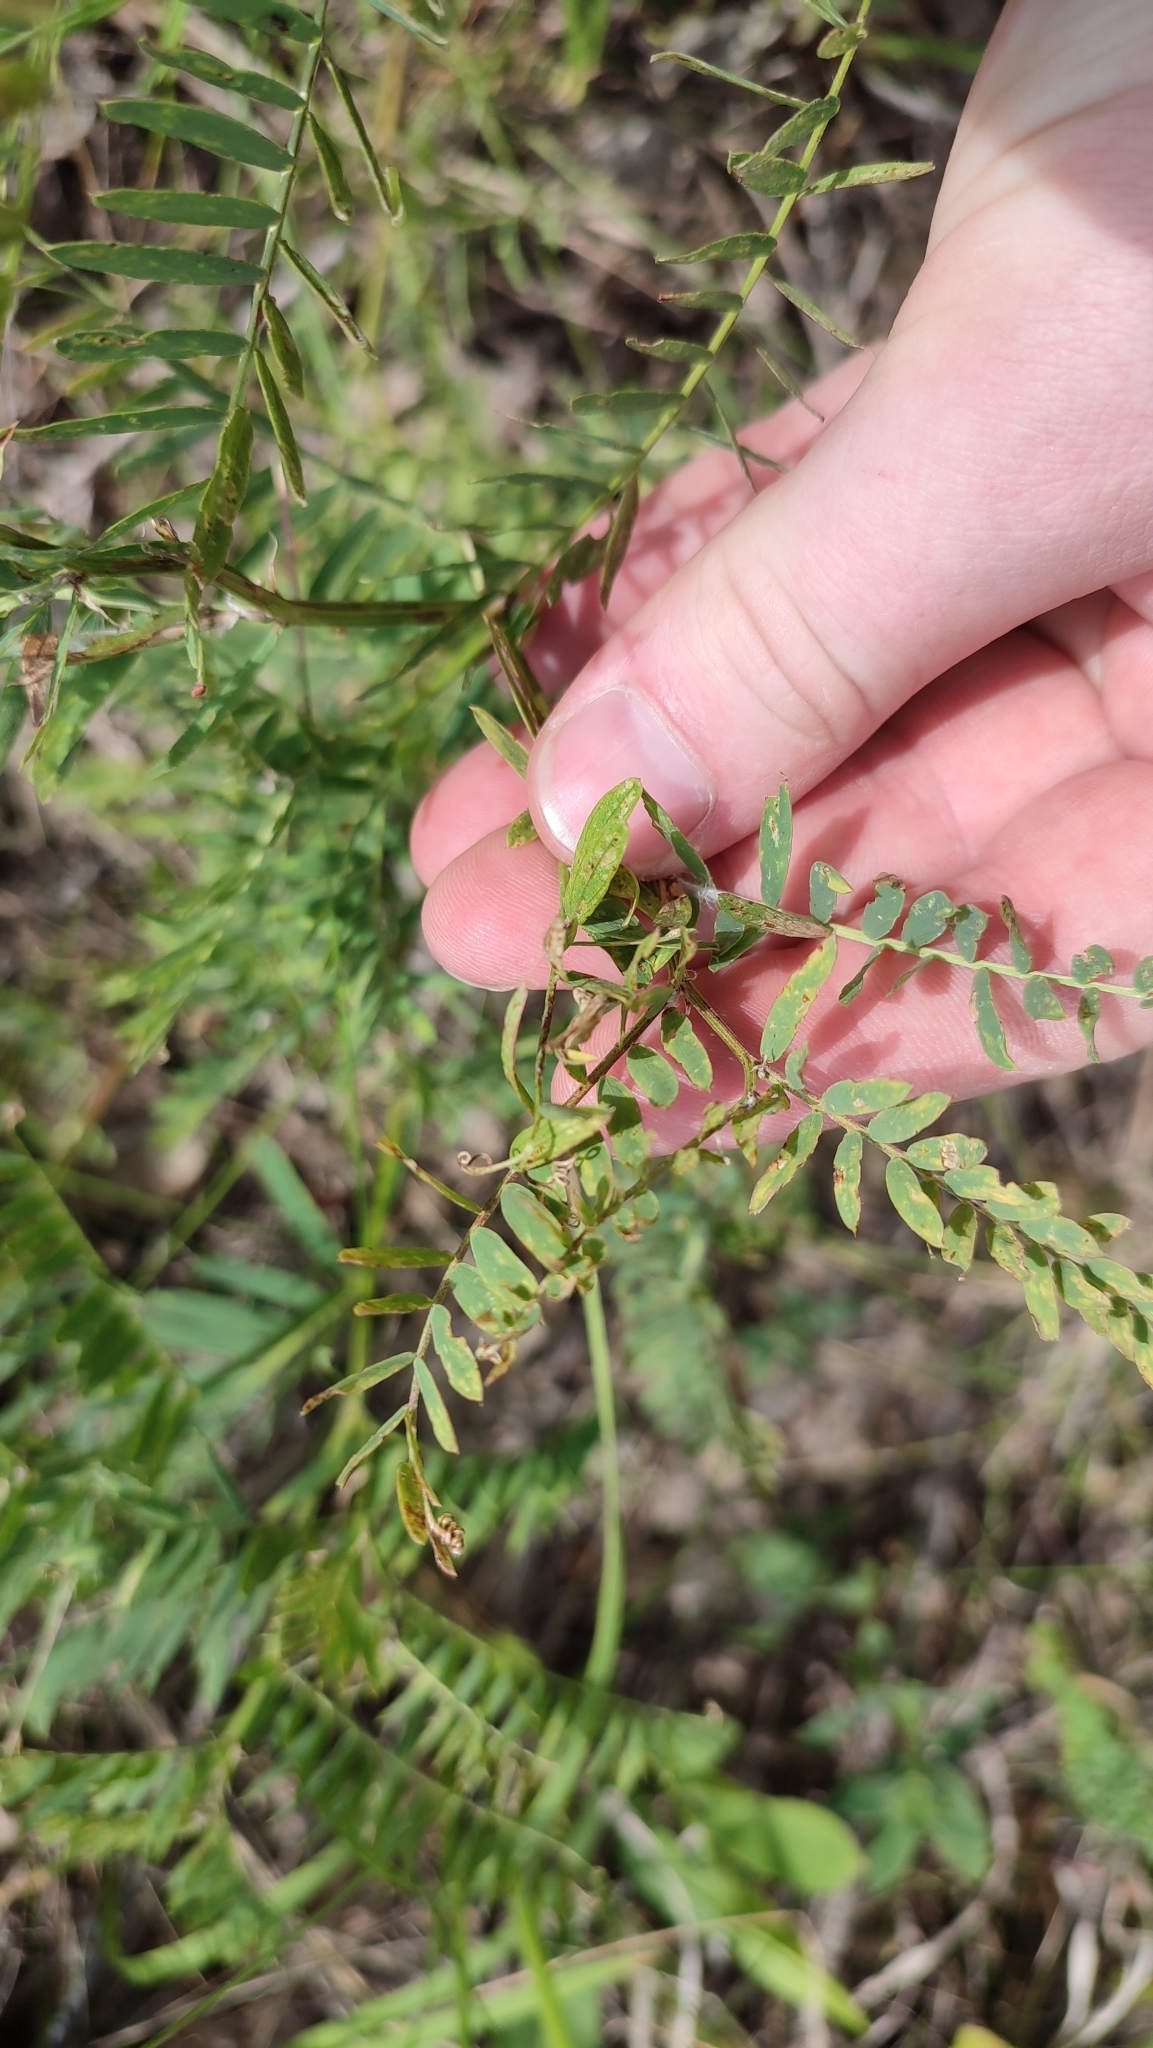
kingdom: Plantae
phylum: Tracheophyta
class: Magnoliopsida
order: Fabales
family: Fabaceae
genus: Vicia
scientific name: Vicia tenuifolia
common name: Fine-leaved vetch
